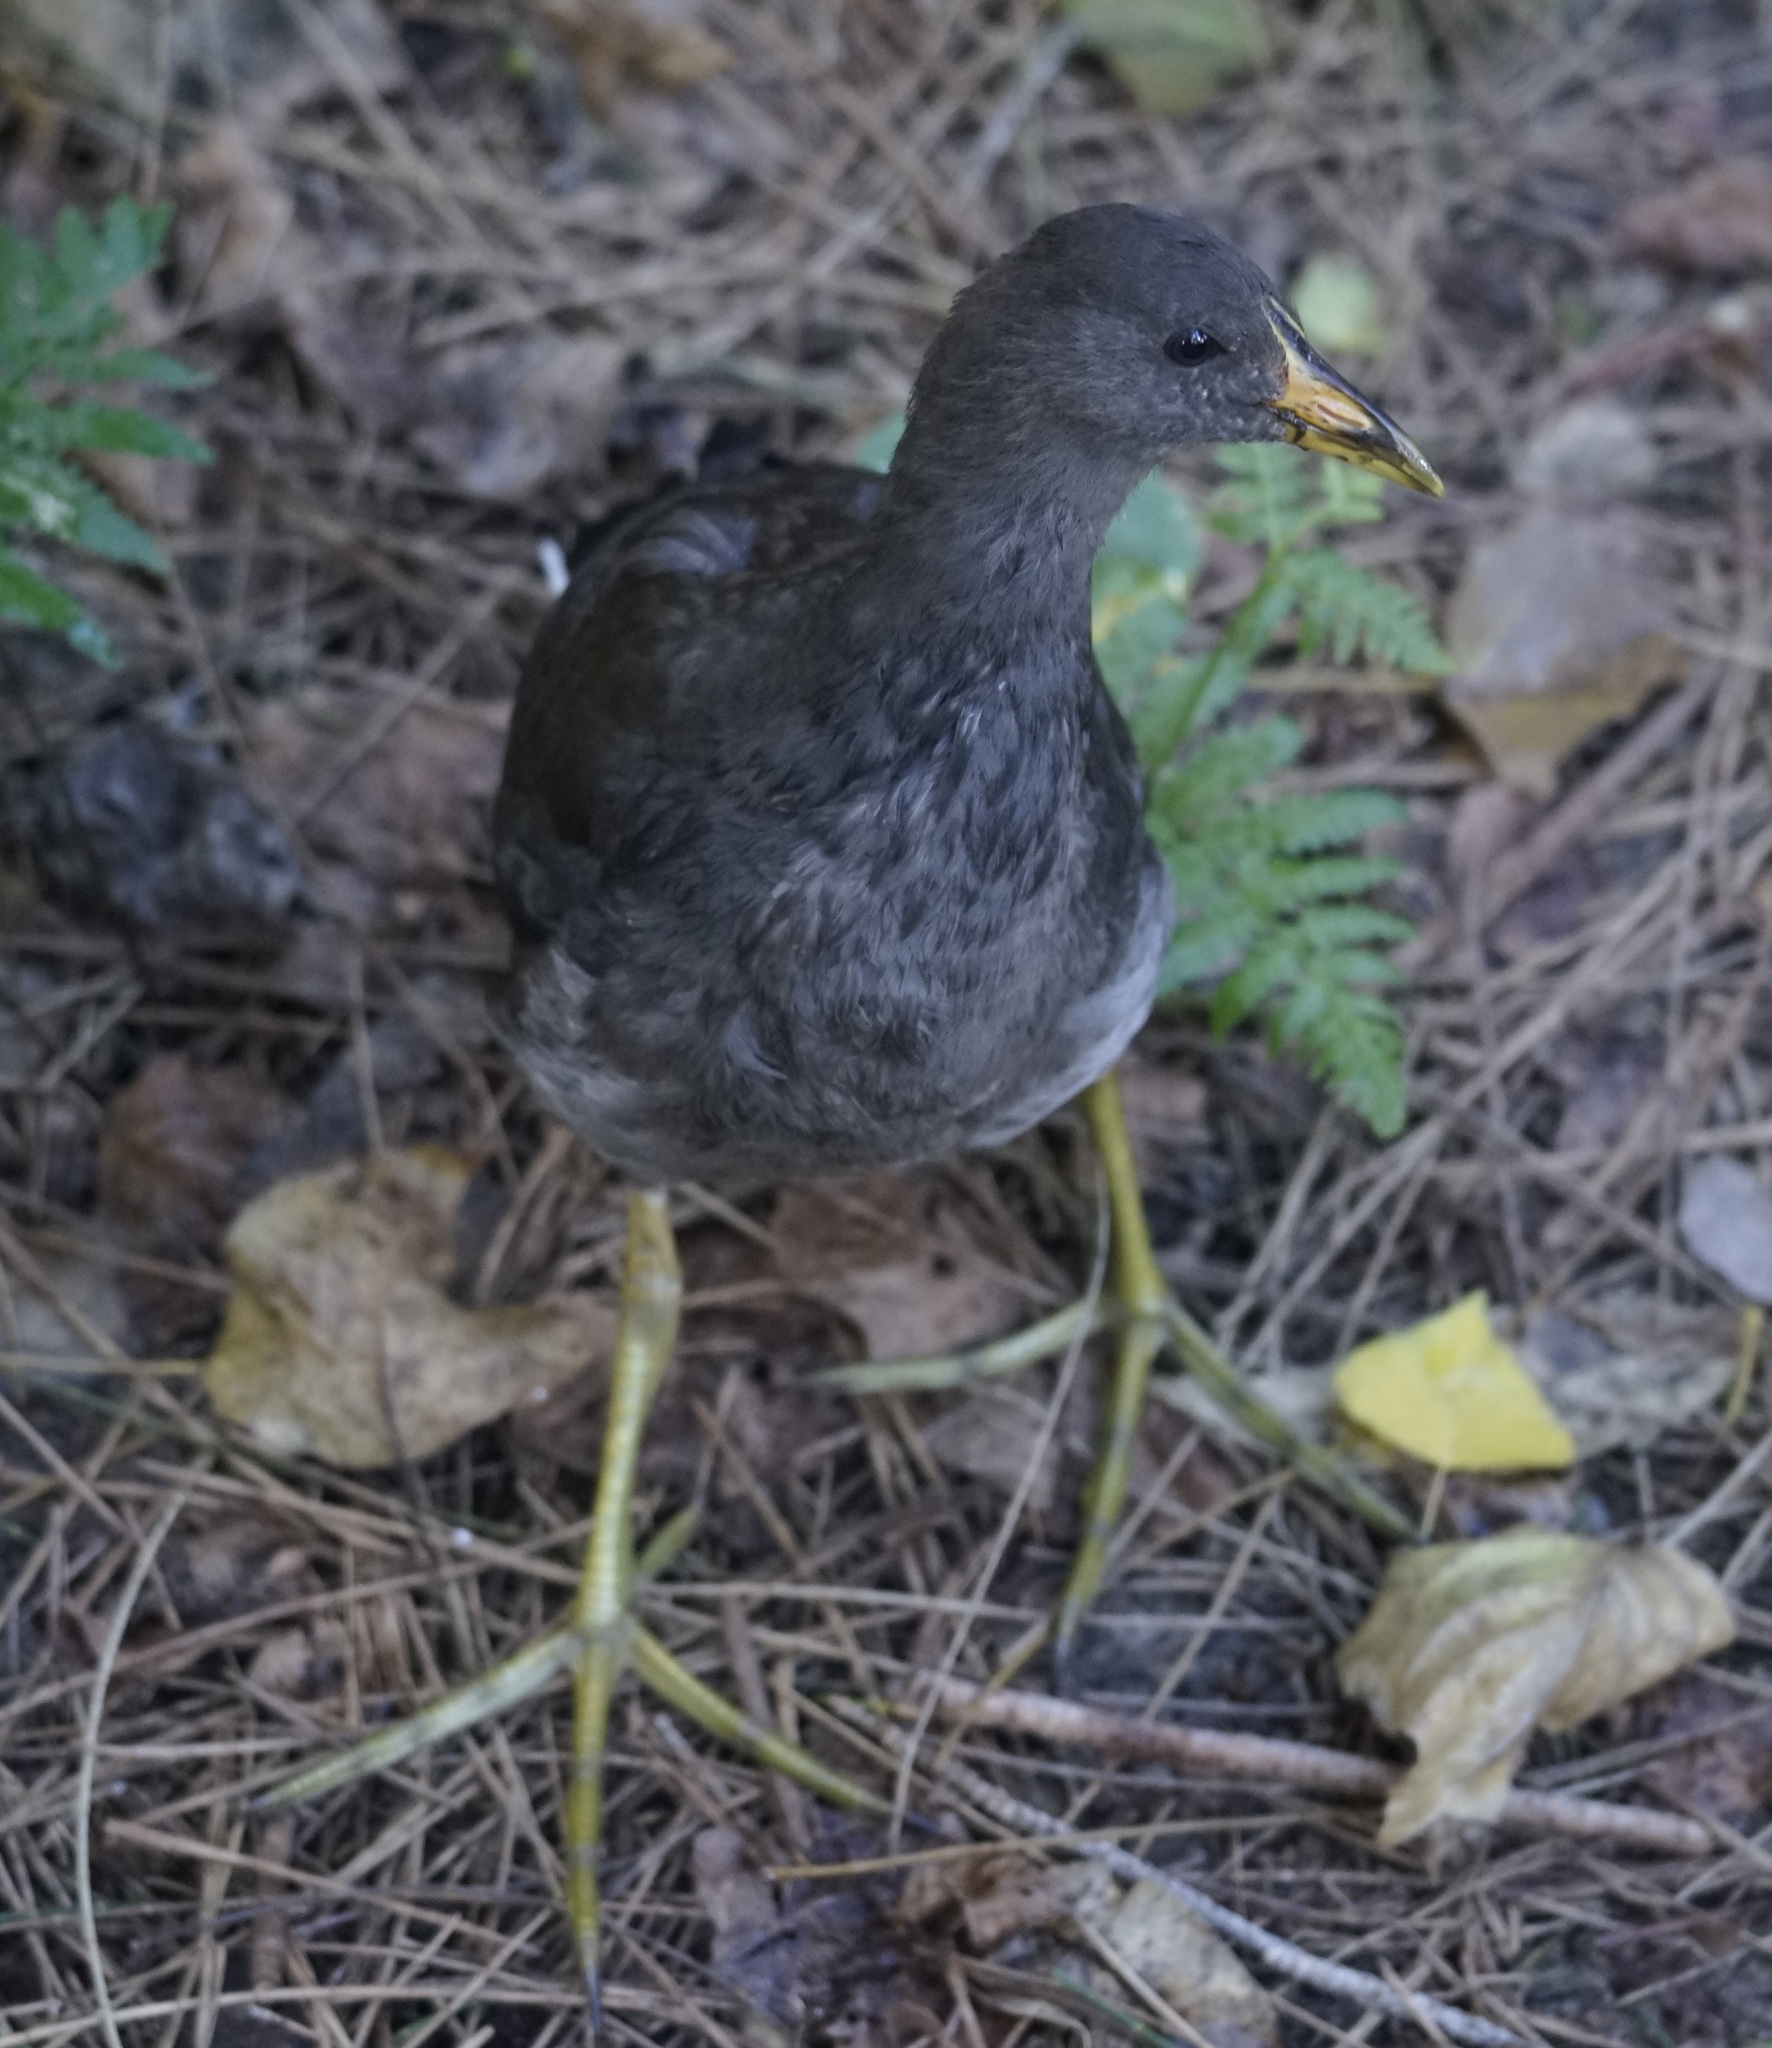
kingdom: Animalia
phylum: Chordata
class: Aves
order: Gruiformes
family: Rallidae
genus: Gallinula
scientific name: Gallinula tenebrosa
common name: Dusky moorhen
